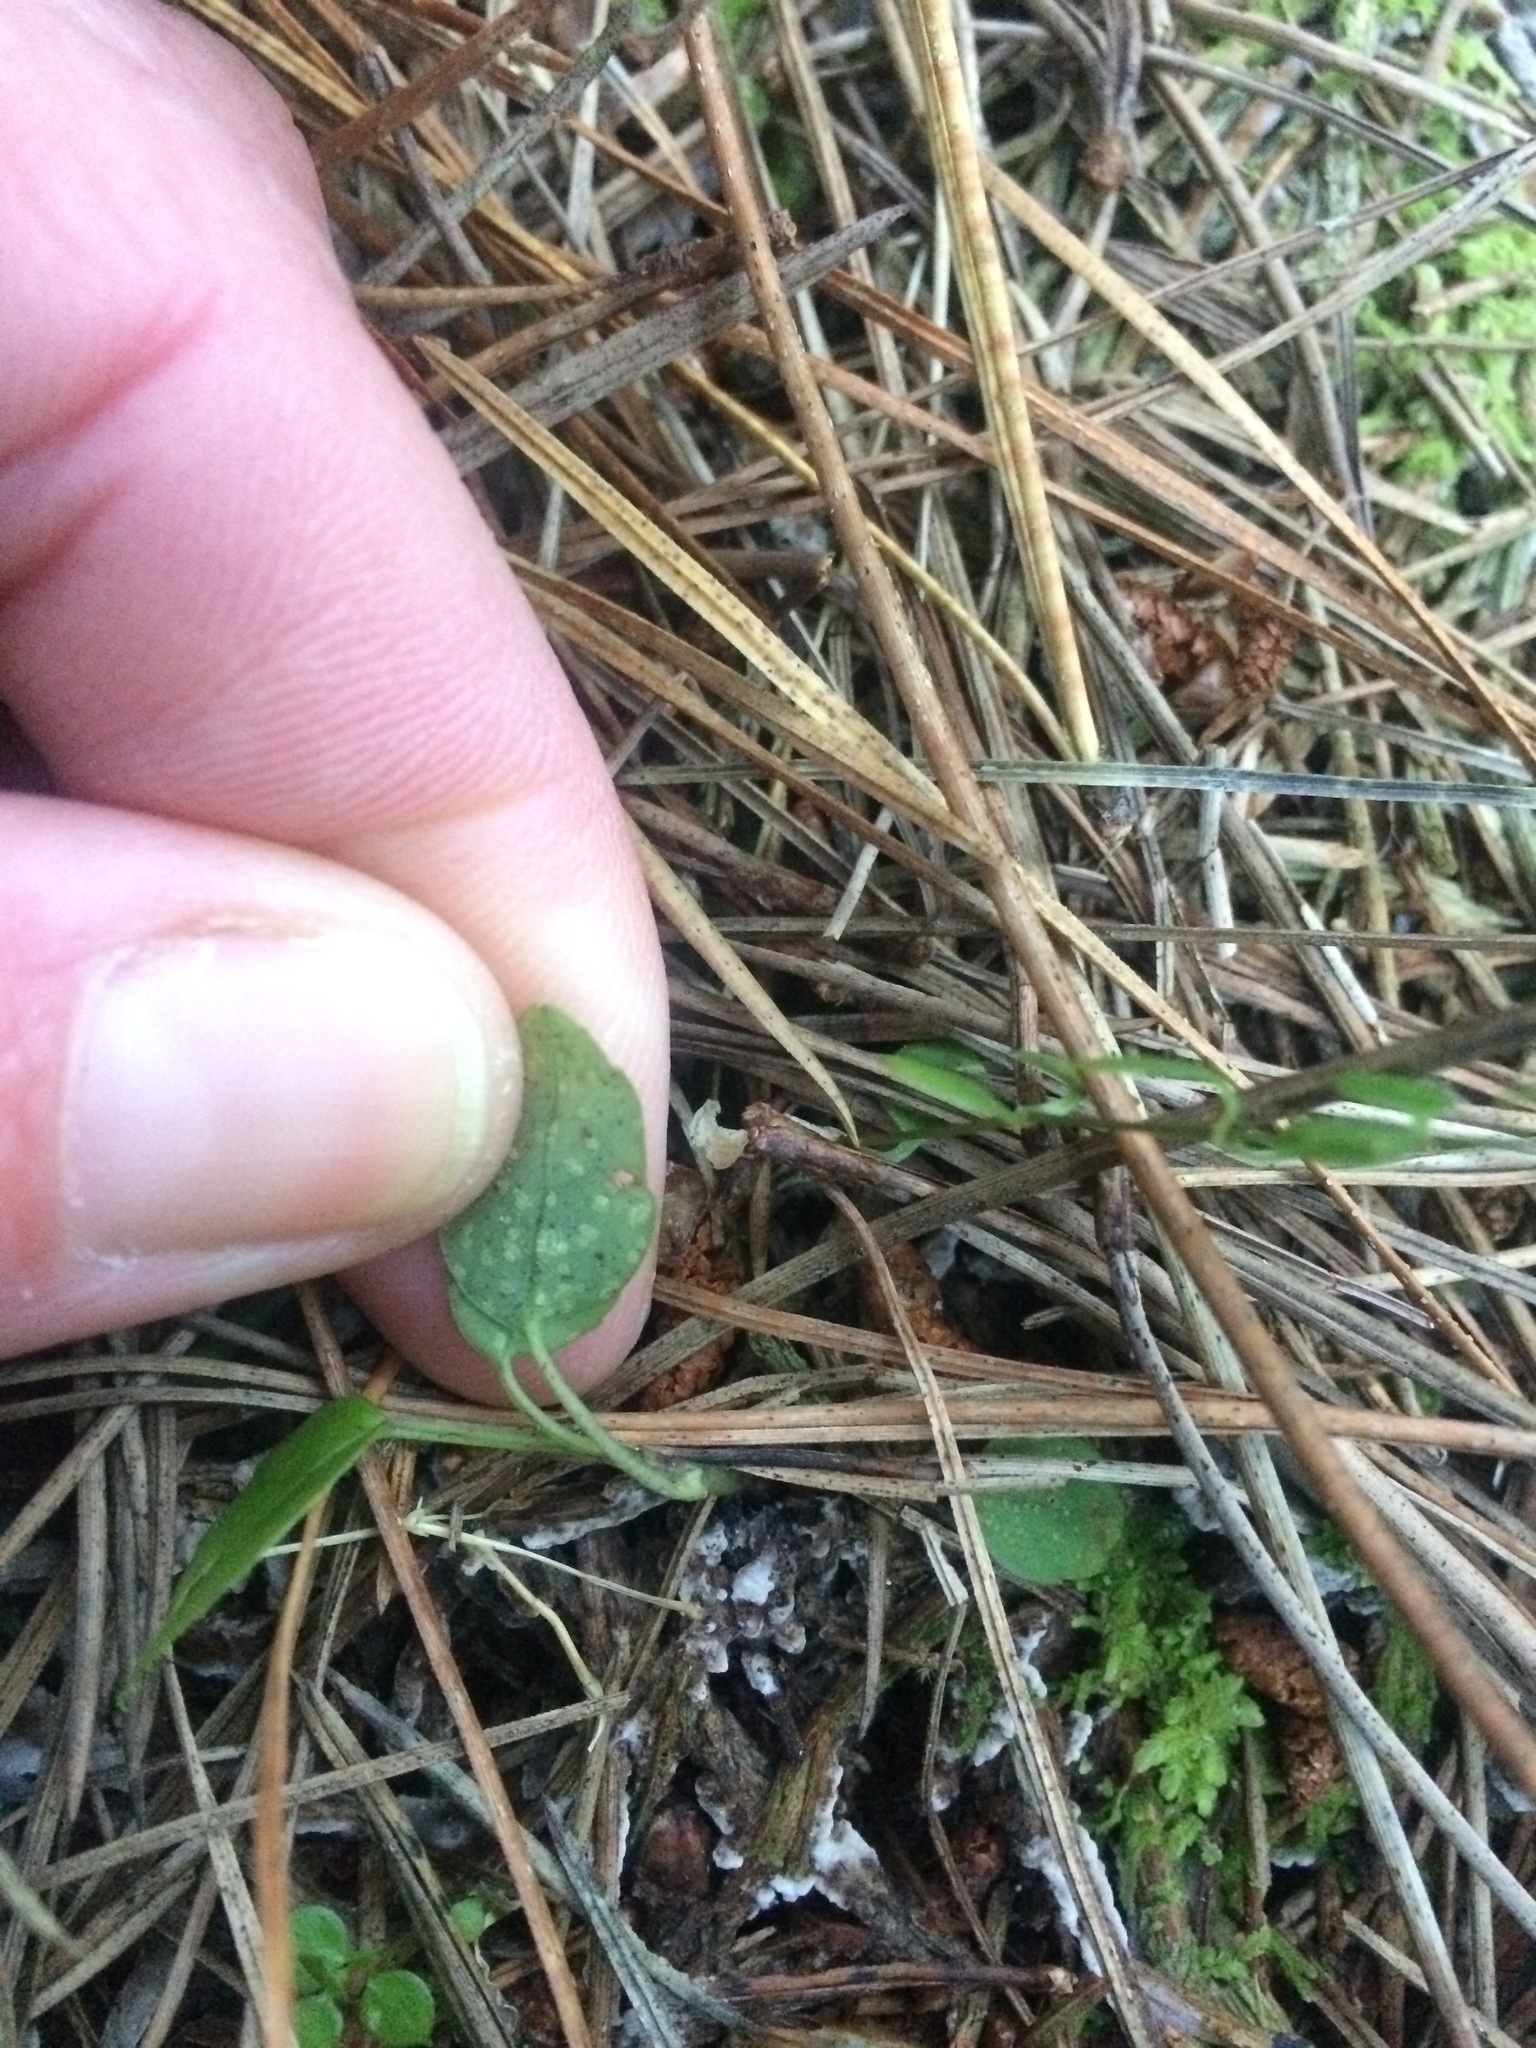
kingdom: Plantae
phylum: Tracheophyta
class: Magnoliopsida
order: Apiales
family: Araliaceae
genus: Neopanax
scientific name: Neopanax colensoi
